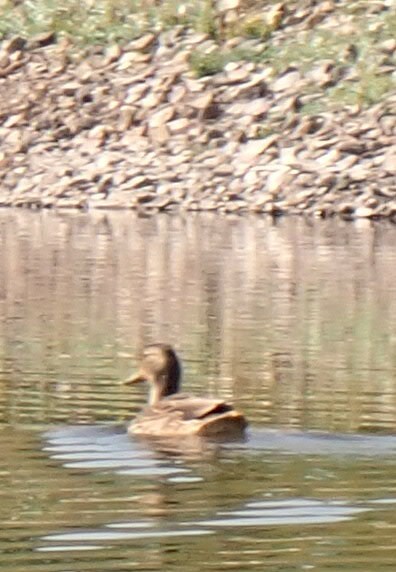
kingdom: Animalia
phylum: Chordata
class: Aves
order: Anseriformes
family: Anatidae
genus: Anas
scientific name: Anas platyrhynchos
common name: Mallard
